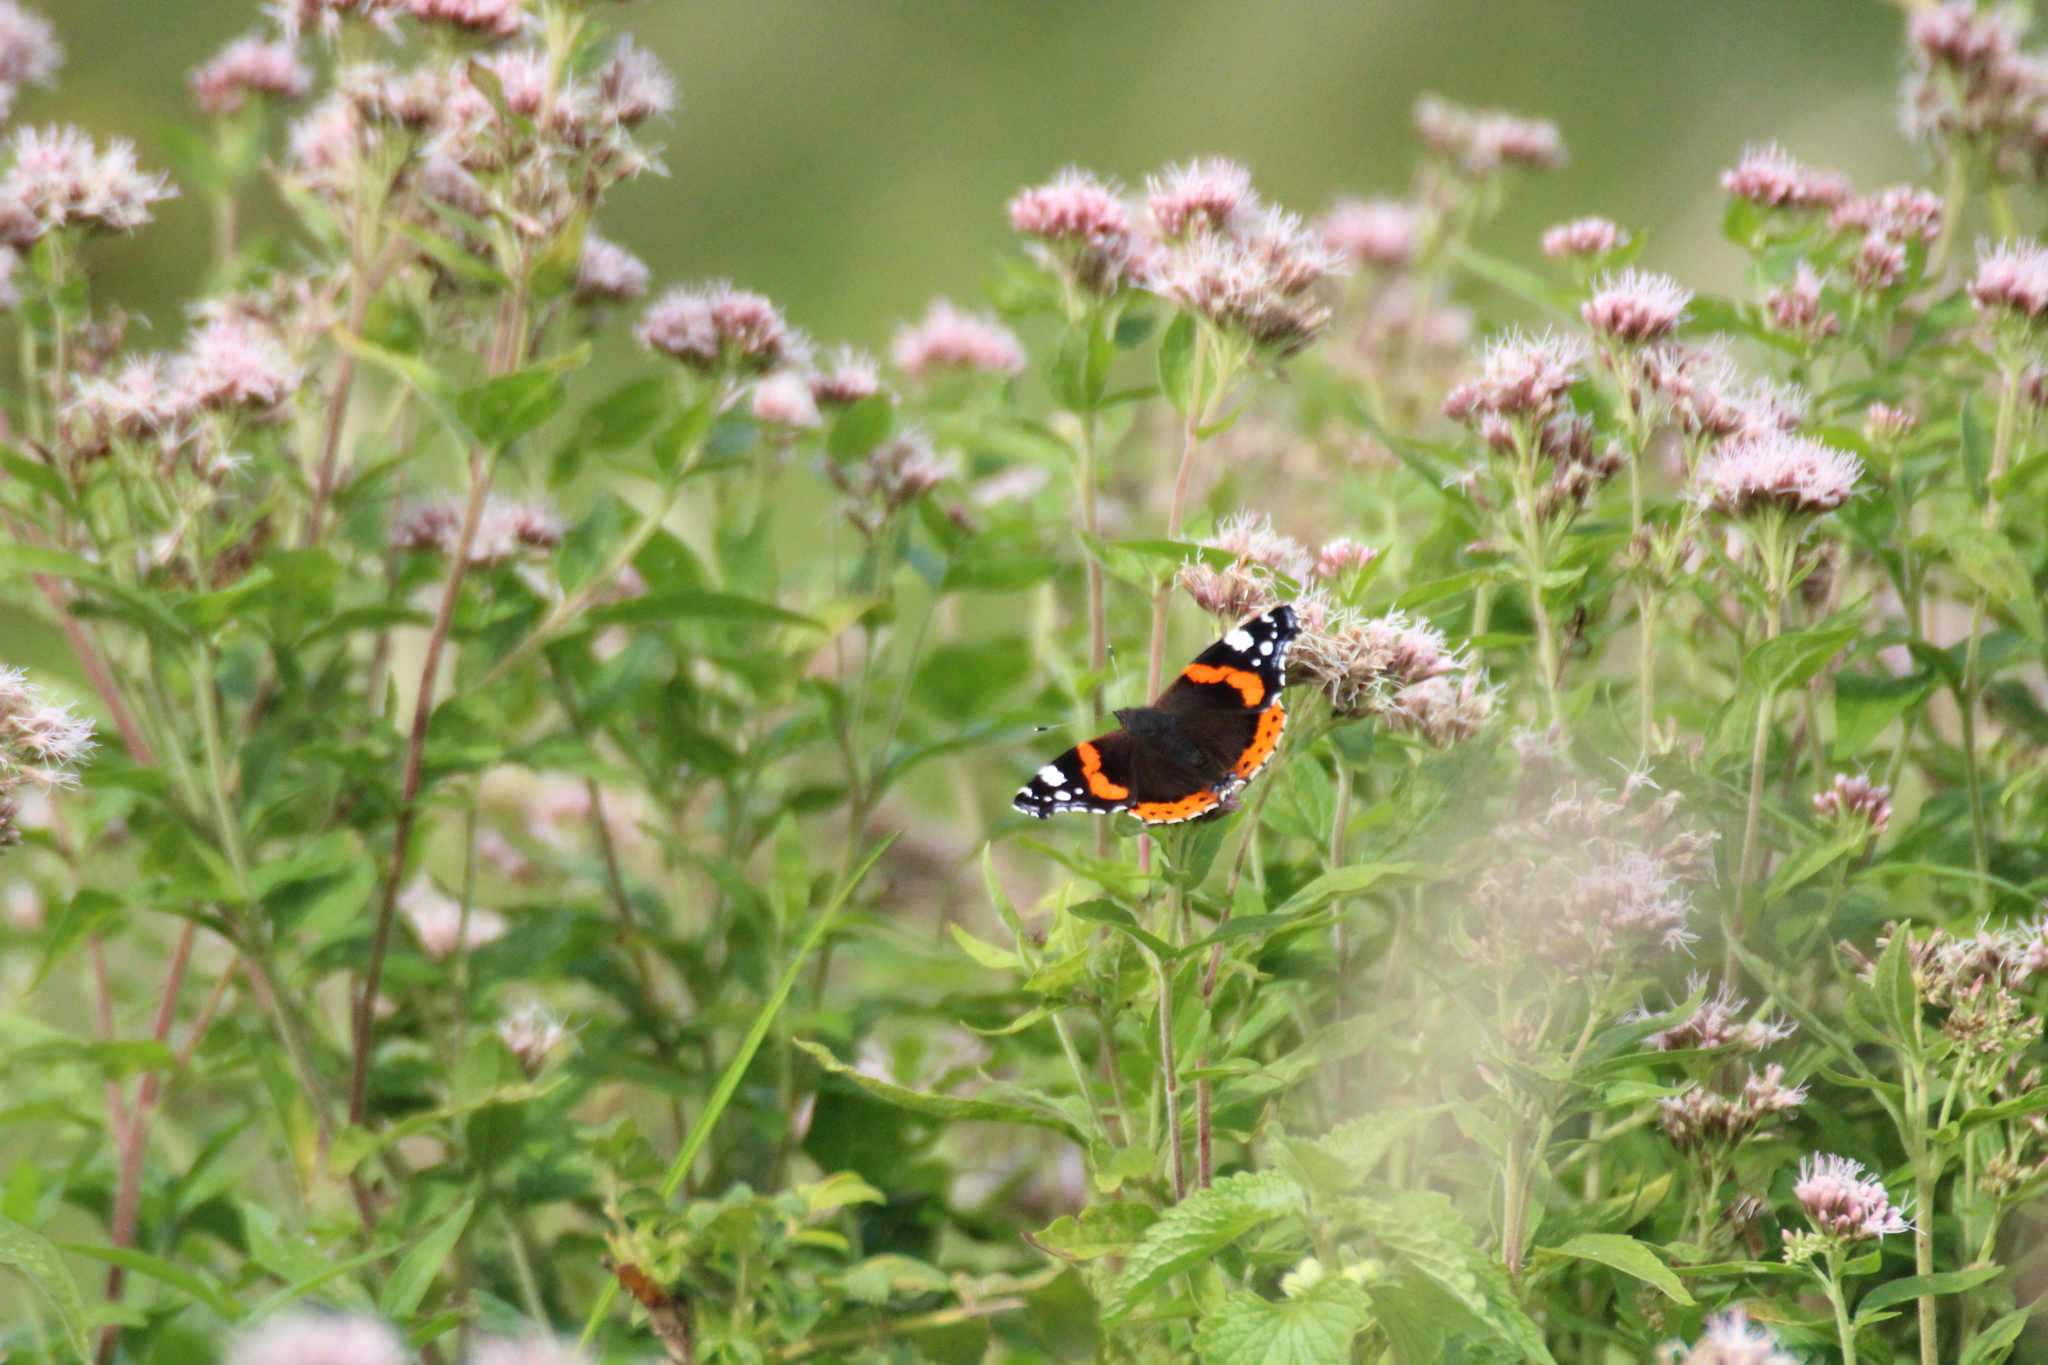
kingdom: Animalia
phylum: Arthropoda
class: Insecta
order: Lepidoptera
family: Nymphalidae
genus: Vanessa
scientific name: Vanessa atalanta
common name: Red admiral
